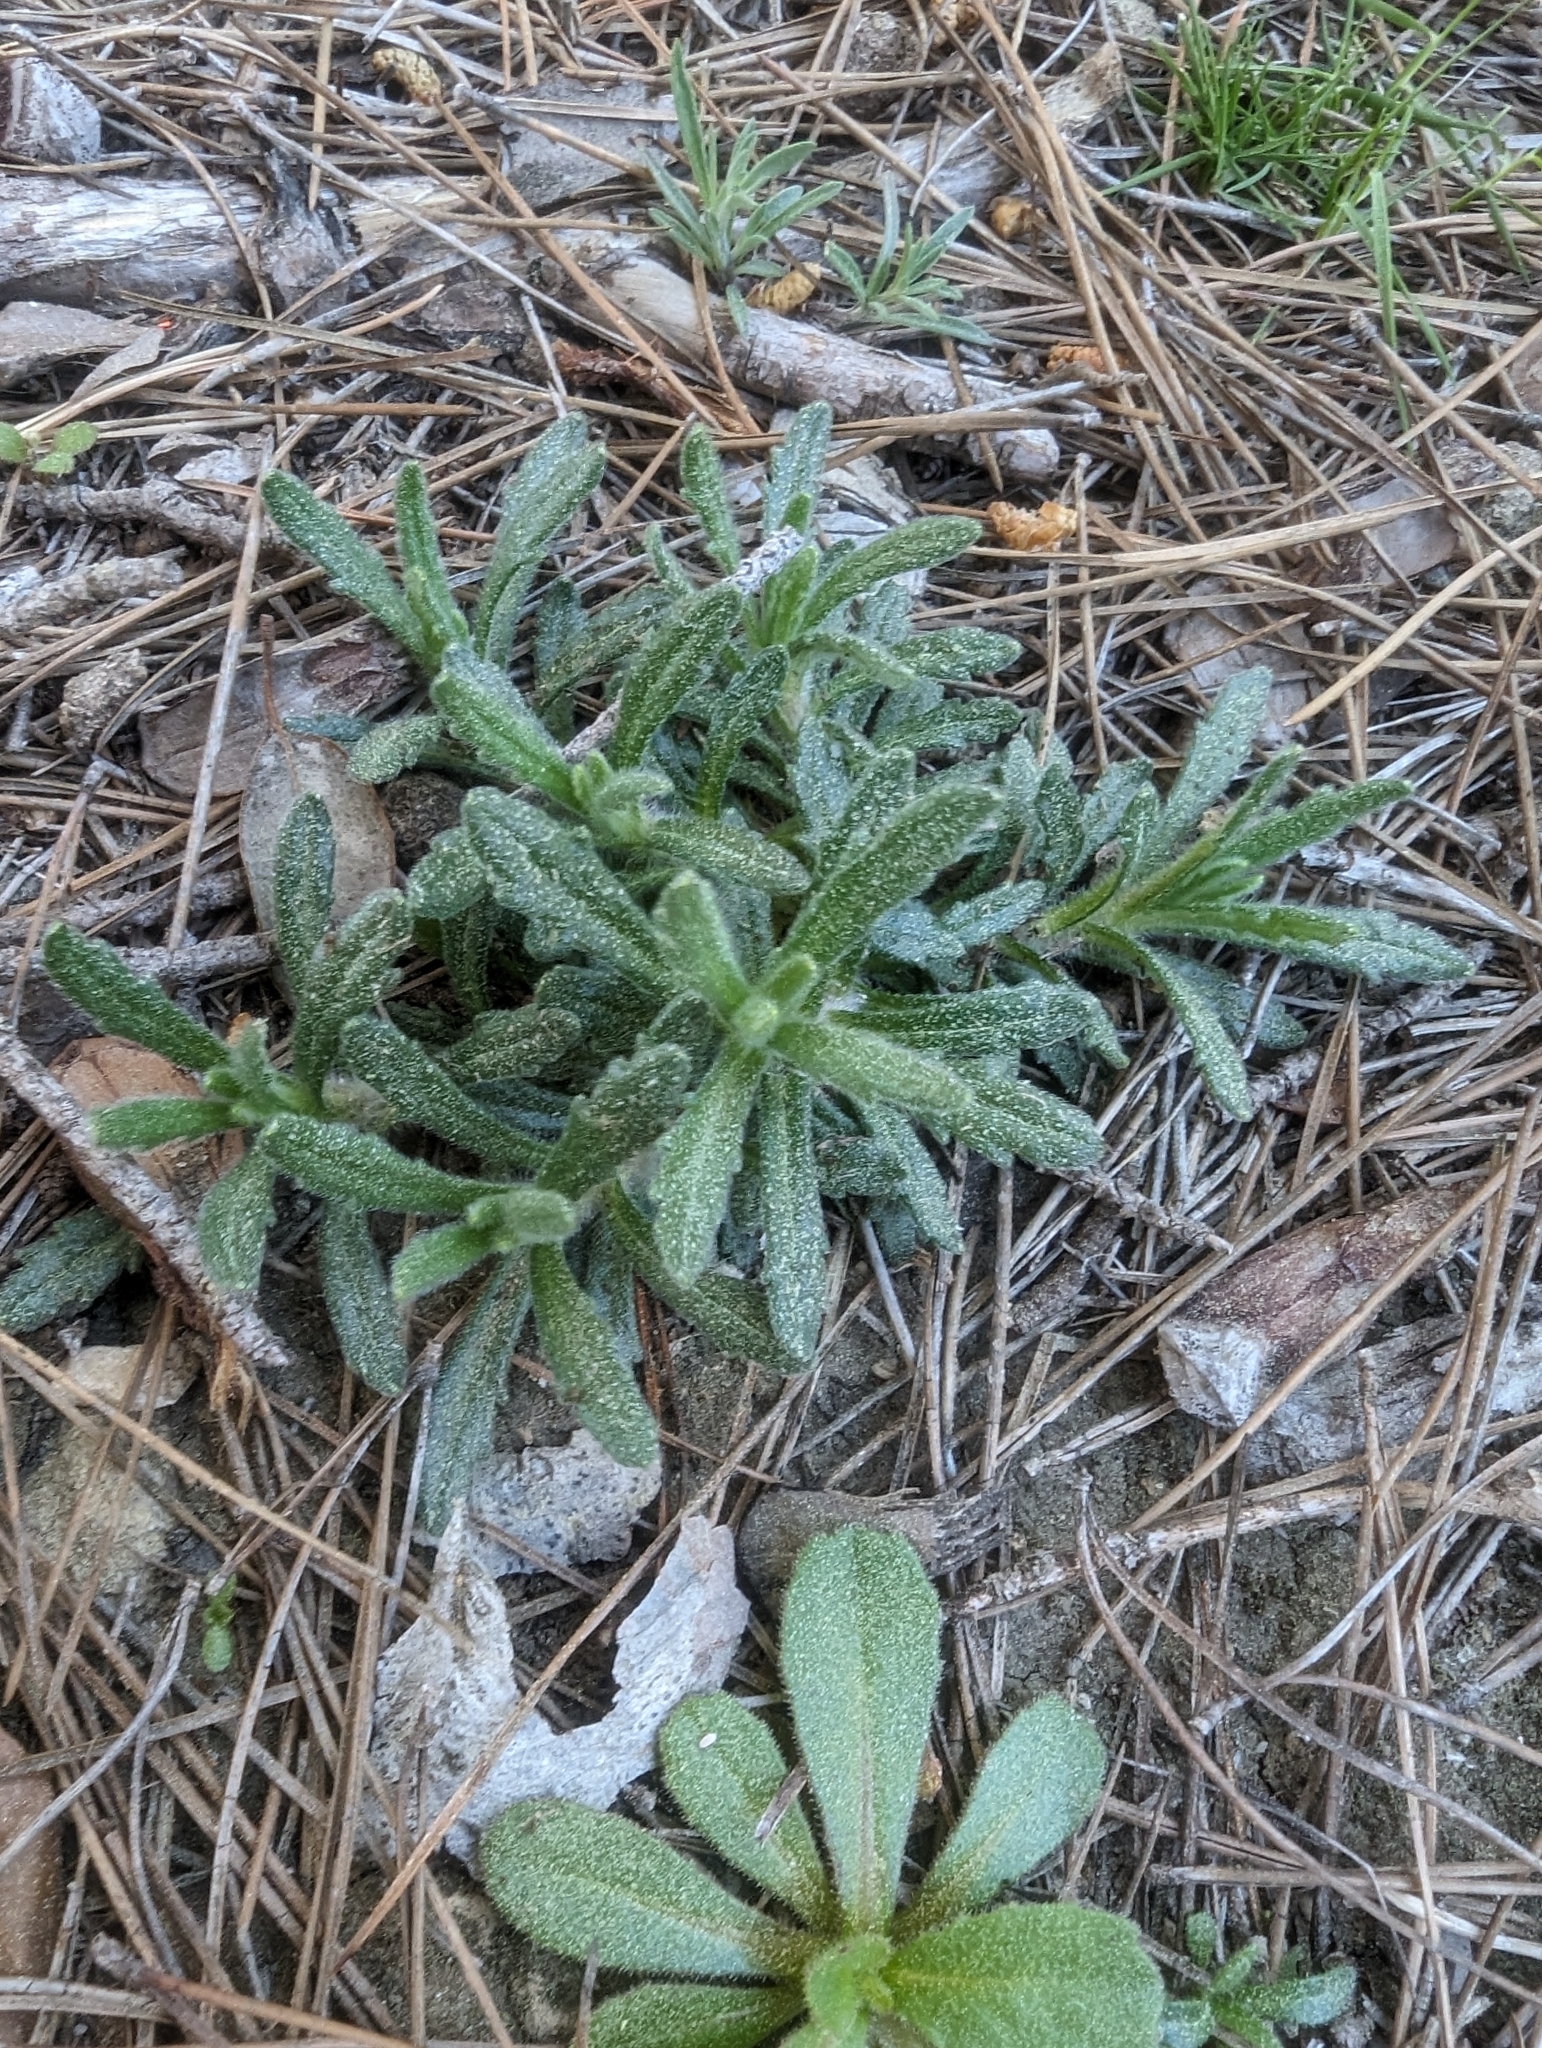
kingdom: Plantae
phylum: Tracheophyta
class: Magnoliopsida
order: Lamiales
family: Lamiaceae
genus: Ajuga
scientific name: Ajuga iva
